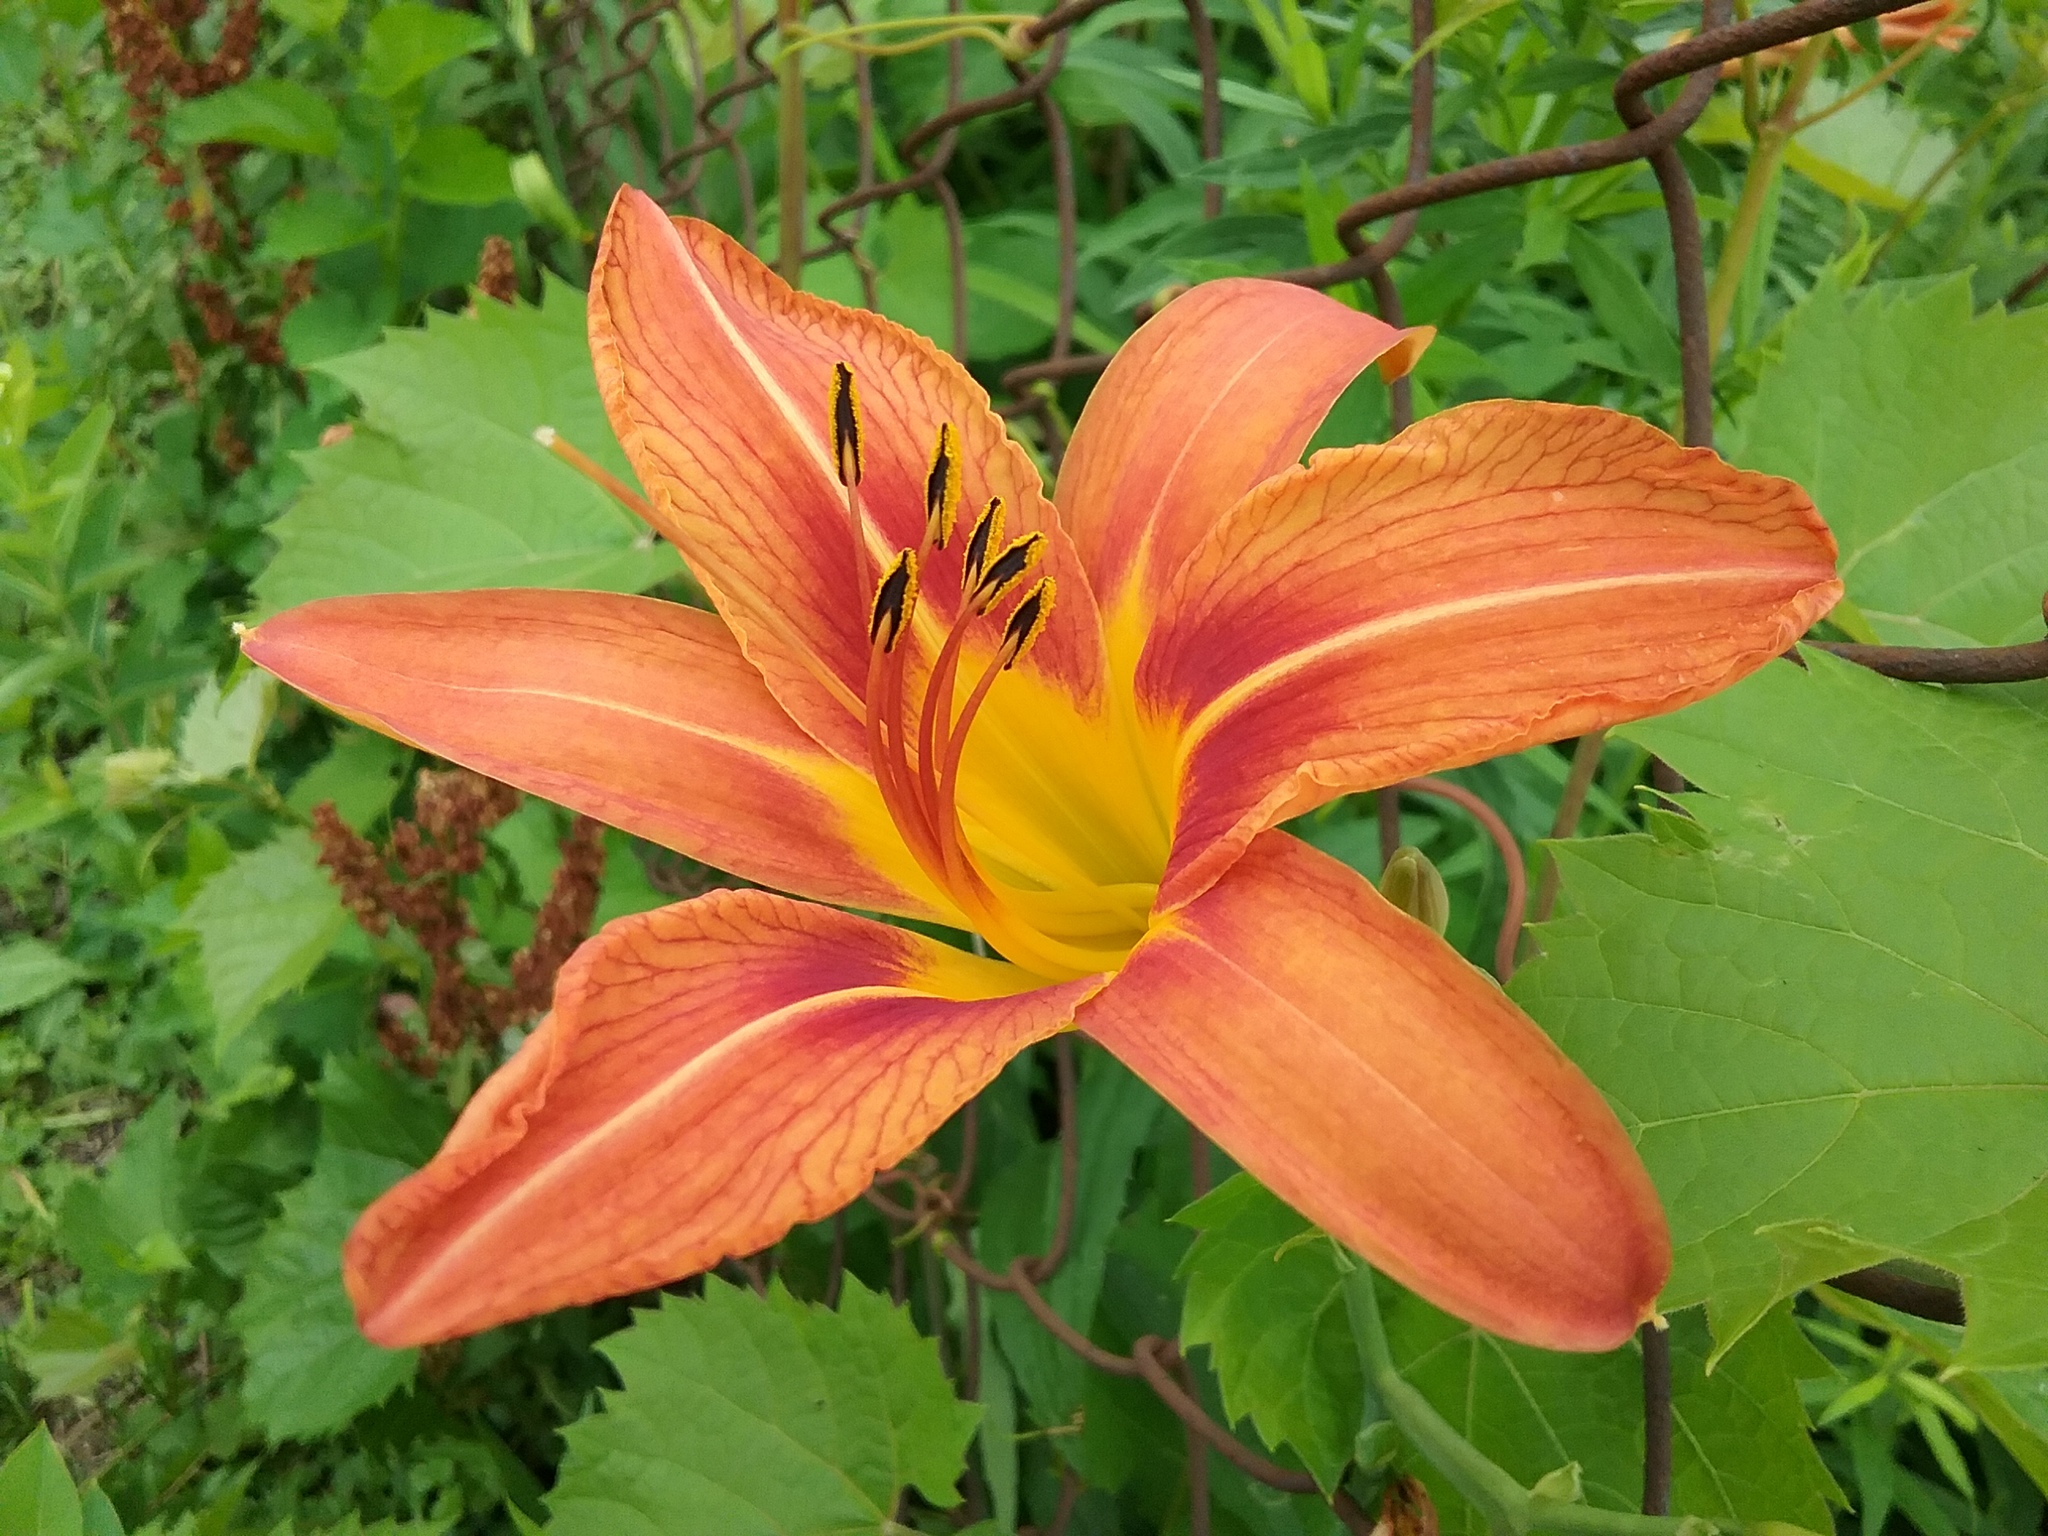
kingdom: Plantae
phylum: Tracheophyta
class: Liliopsida
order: Asparagales
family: Asphodelaceae
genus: Hemerocallis
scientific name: Hemerocallis fulva
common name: Orange day-lily
